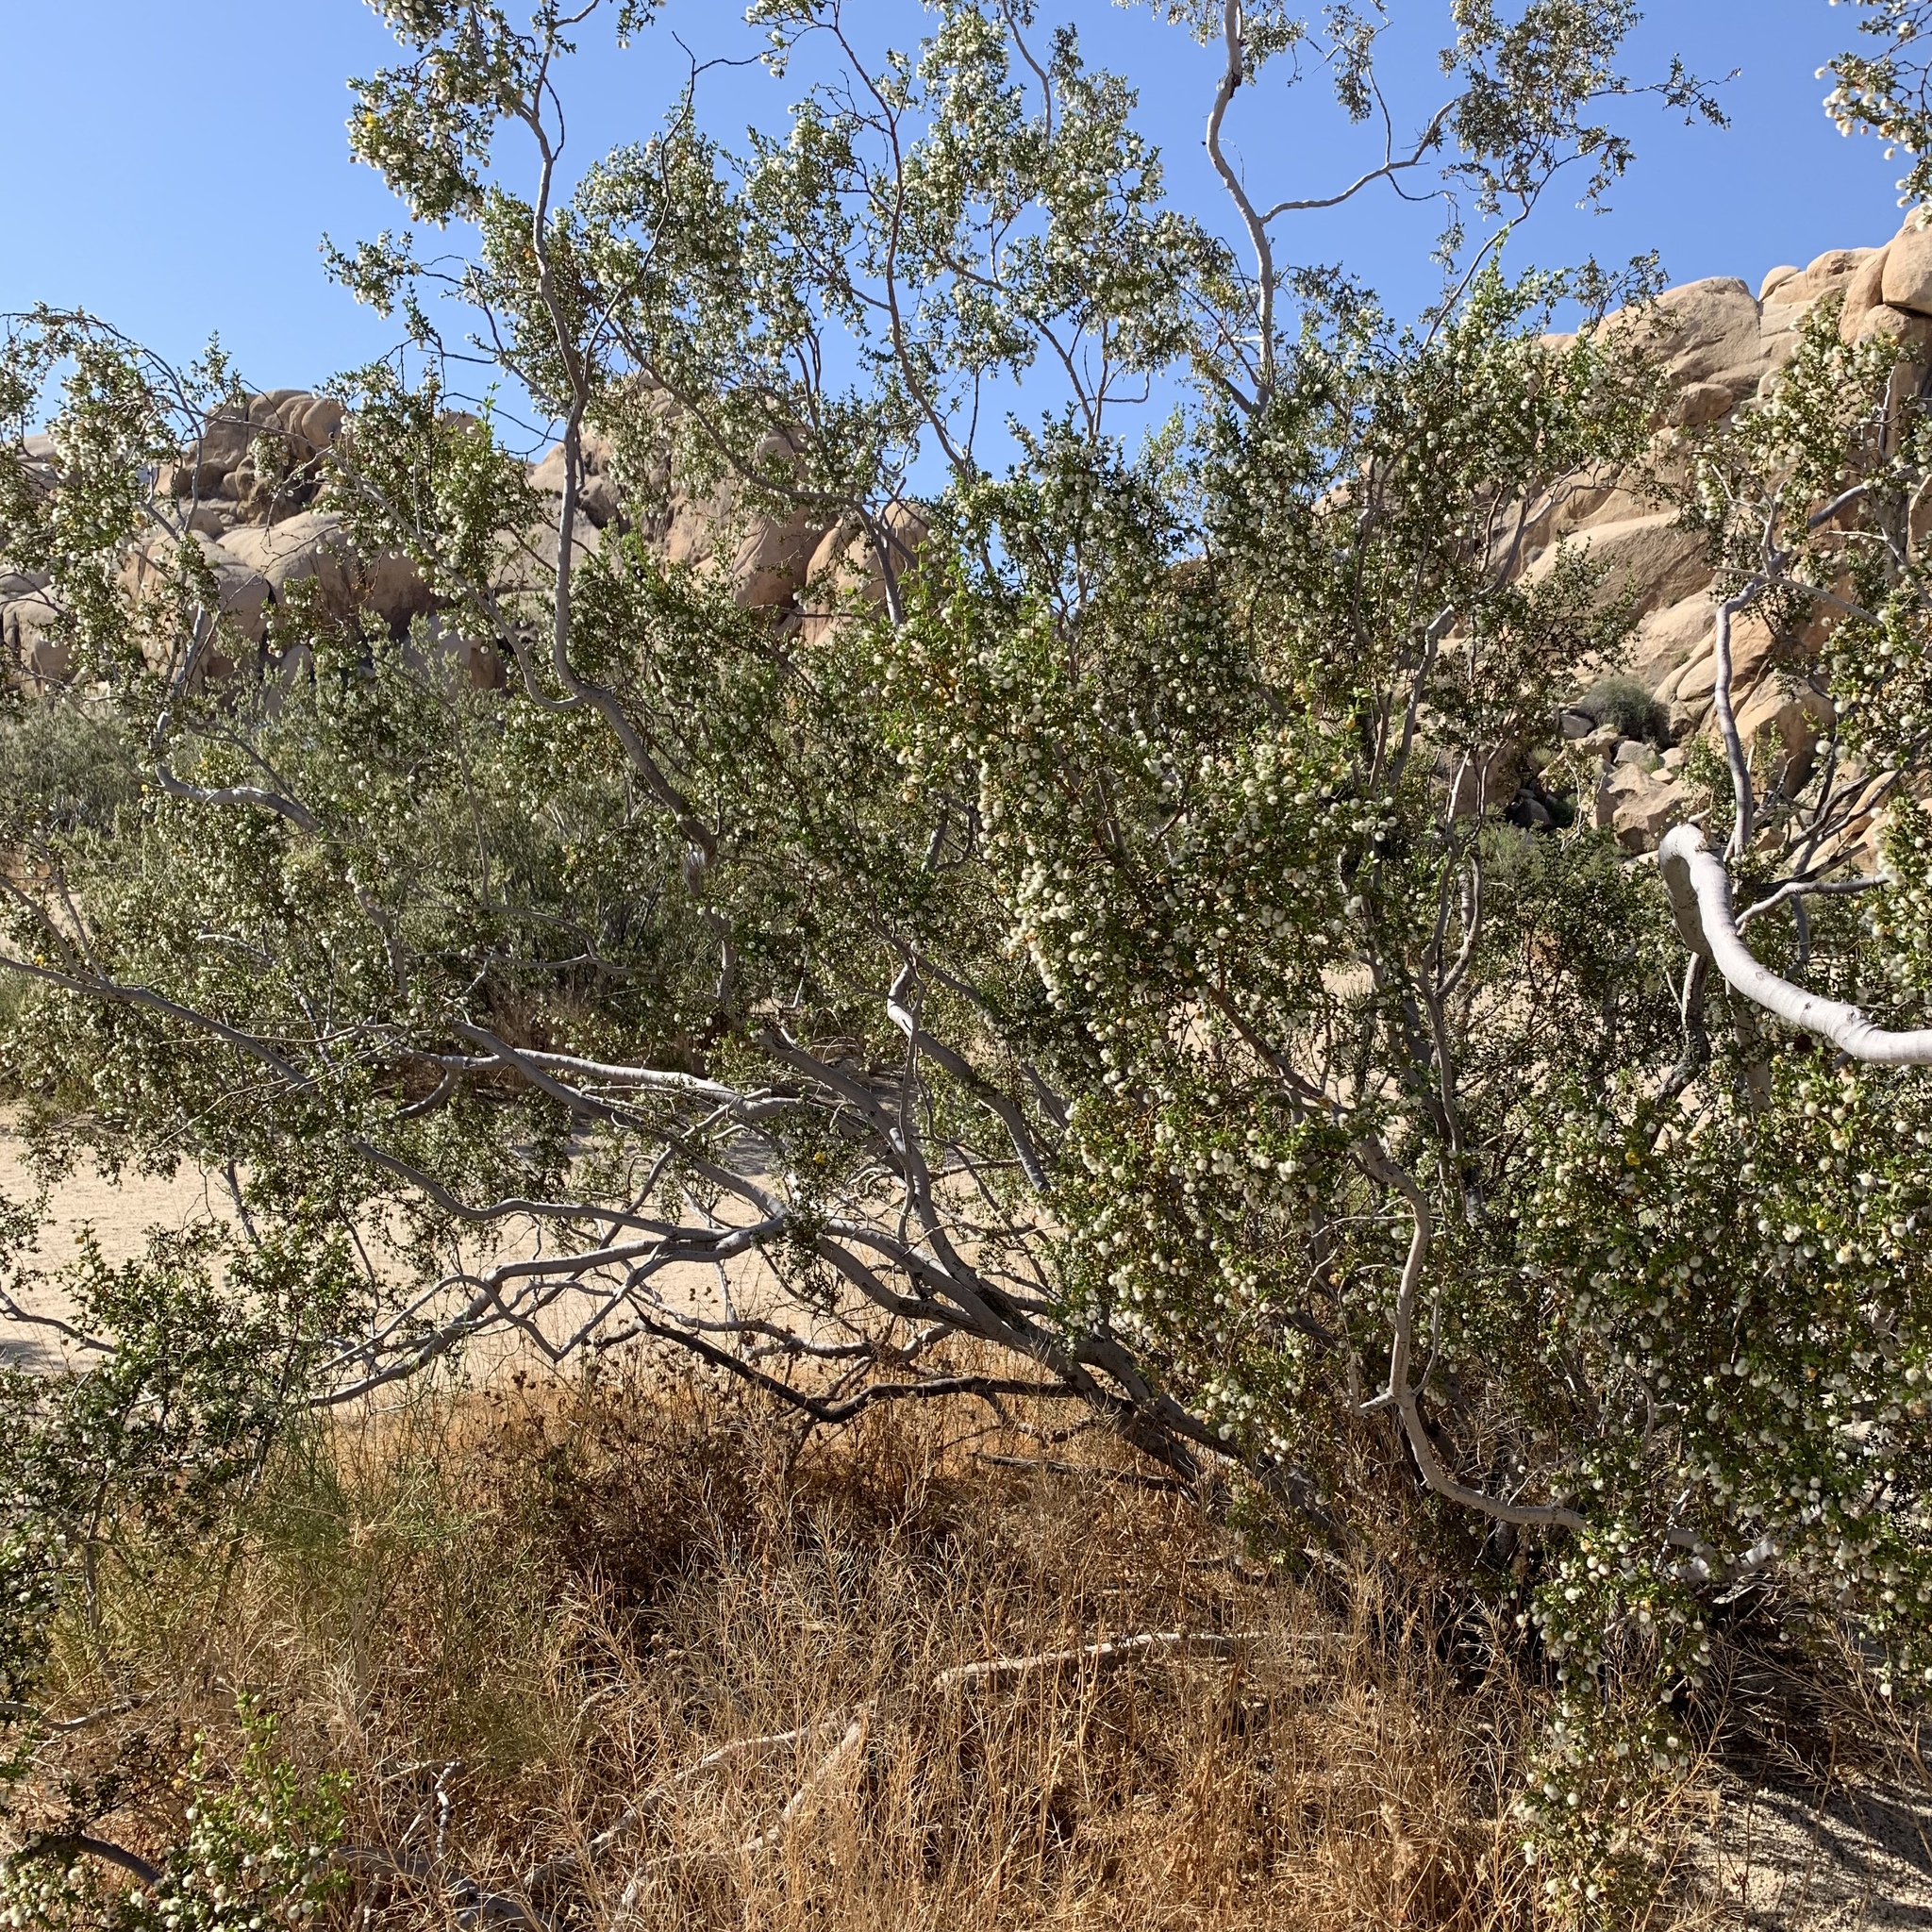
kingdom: Plantae
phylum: Tracheophyta
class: Magnoliopsida
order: Zygophyllales
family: Zygophyllaceae
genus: Larrea
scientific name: Larrea tridentata
